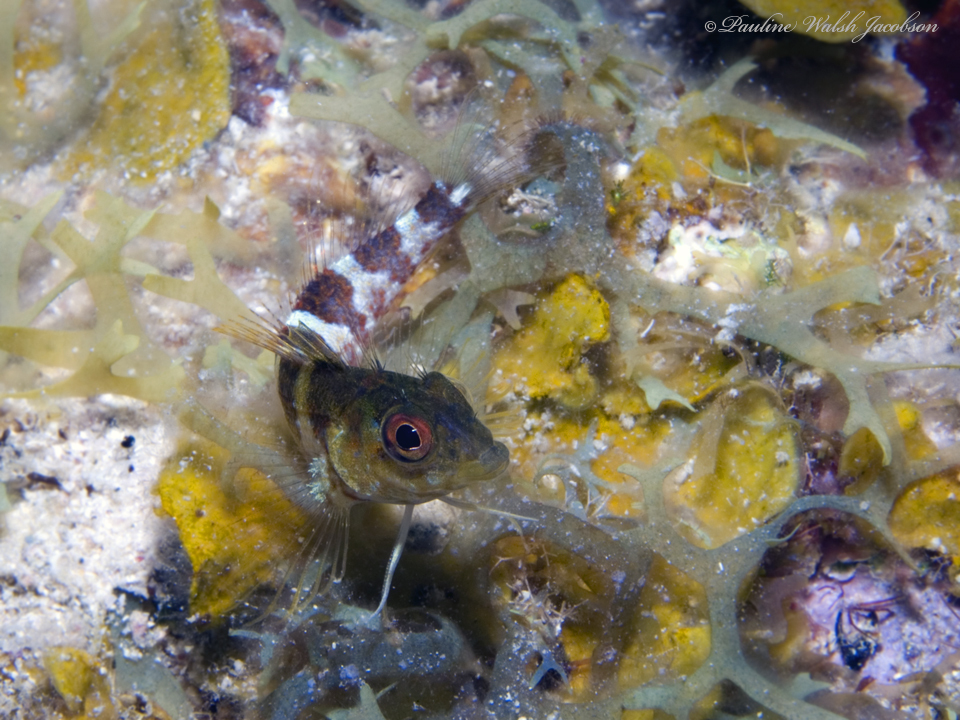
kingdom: Animalia
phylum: Chordata
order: Perciformes
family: Labrisomidae
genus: Malacoctenus
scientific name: Malacoctenus triangulatus
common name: Saddled blenny
